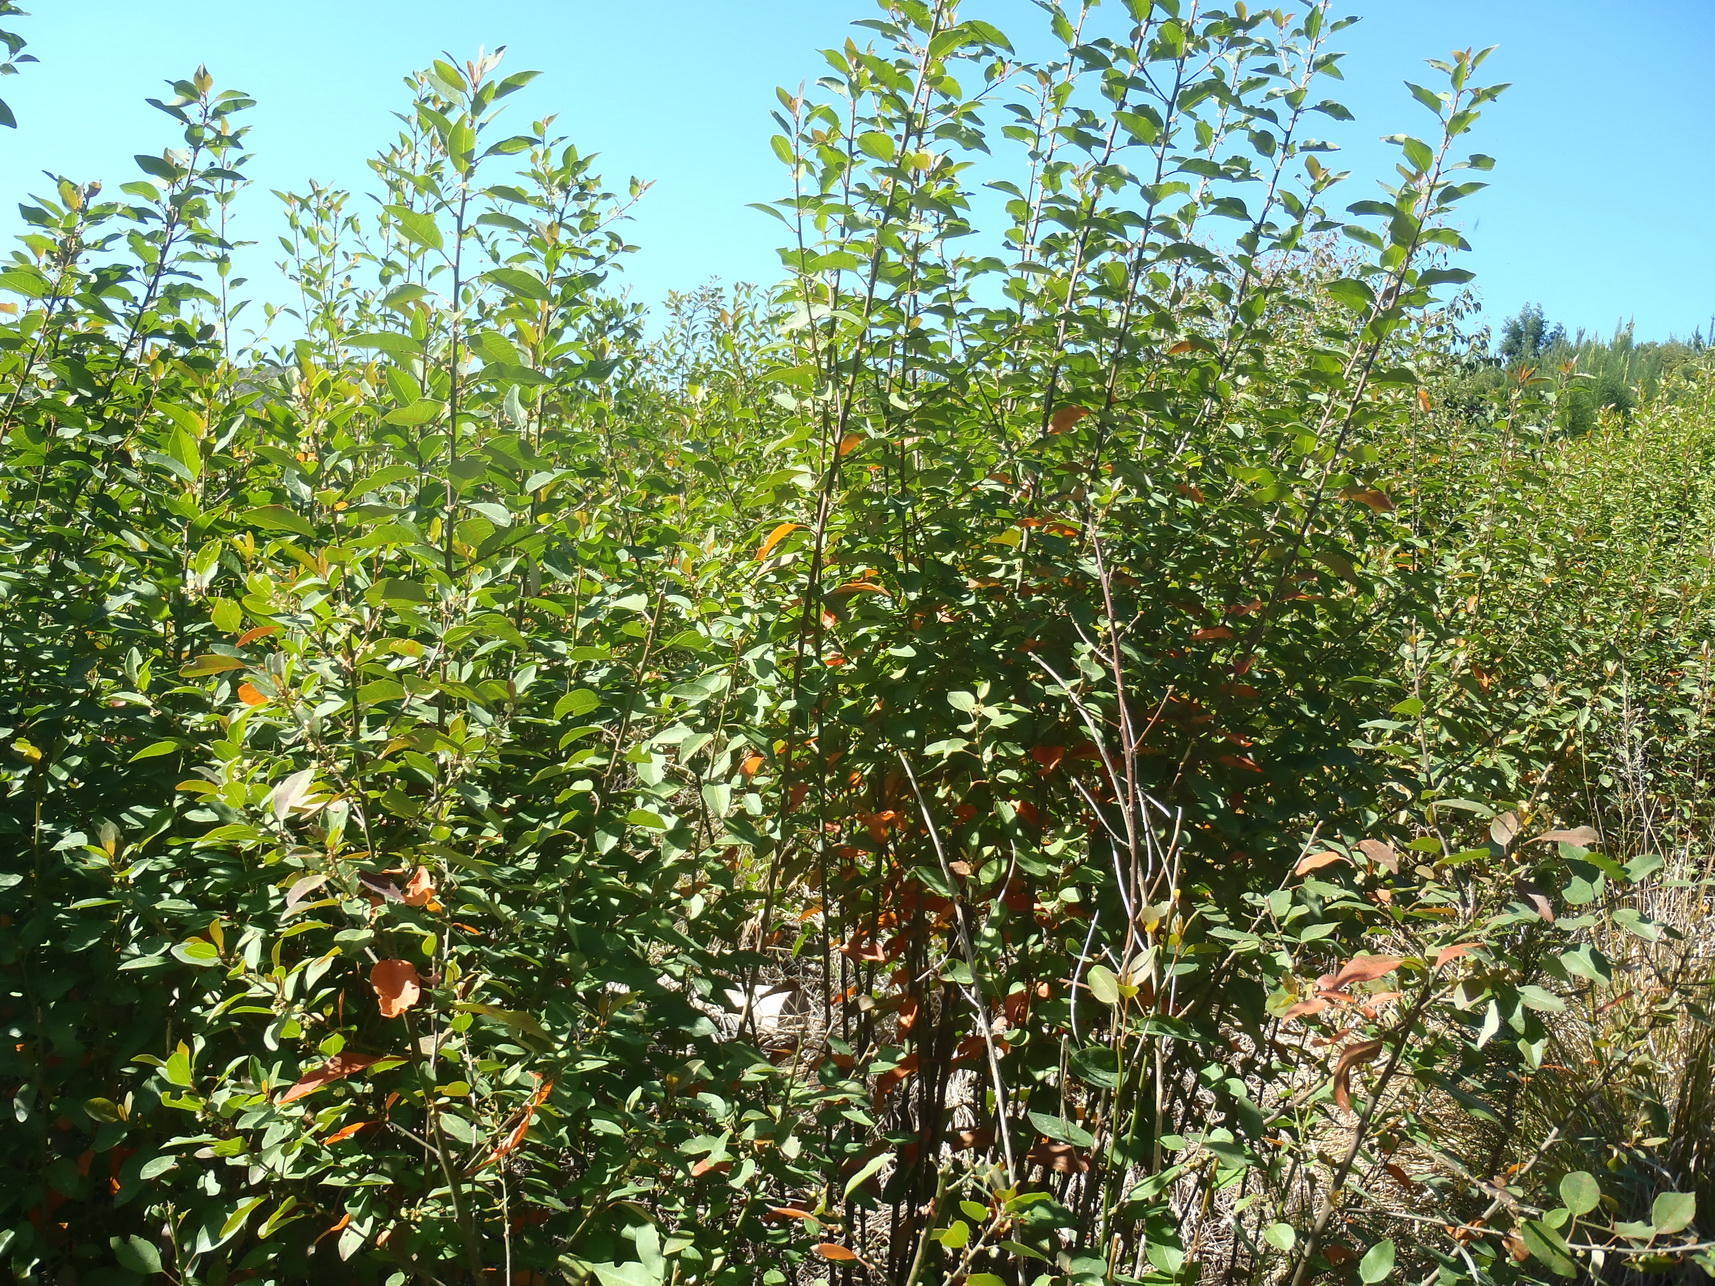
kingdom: Plantae
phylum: Tracheophyta
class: Magnoliopsida
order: Malpighiales
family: Peraceae
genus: Clutia
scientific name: Clutia pulchella
